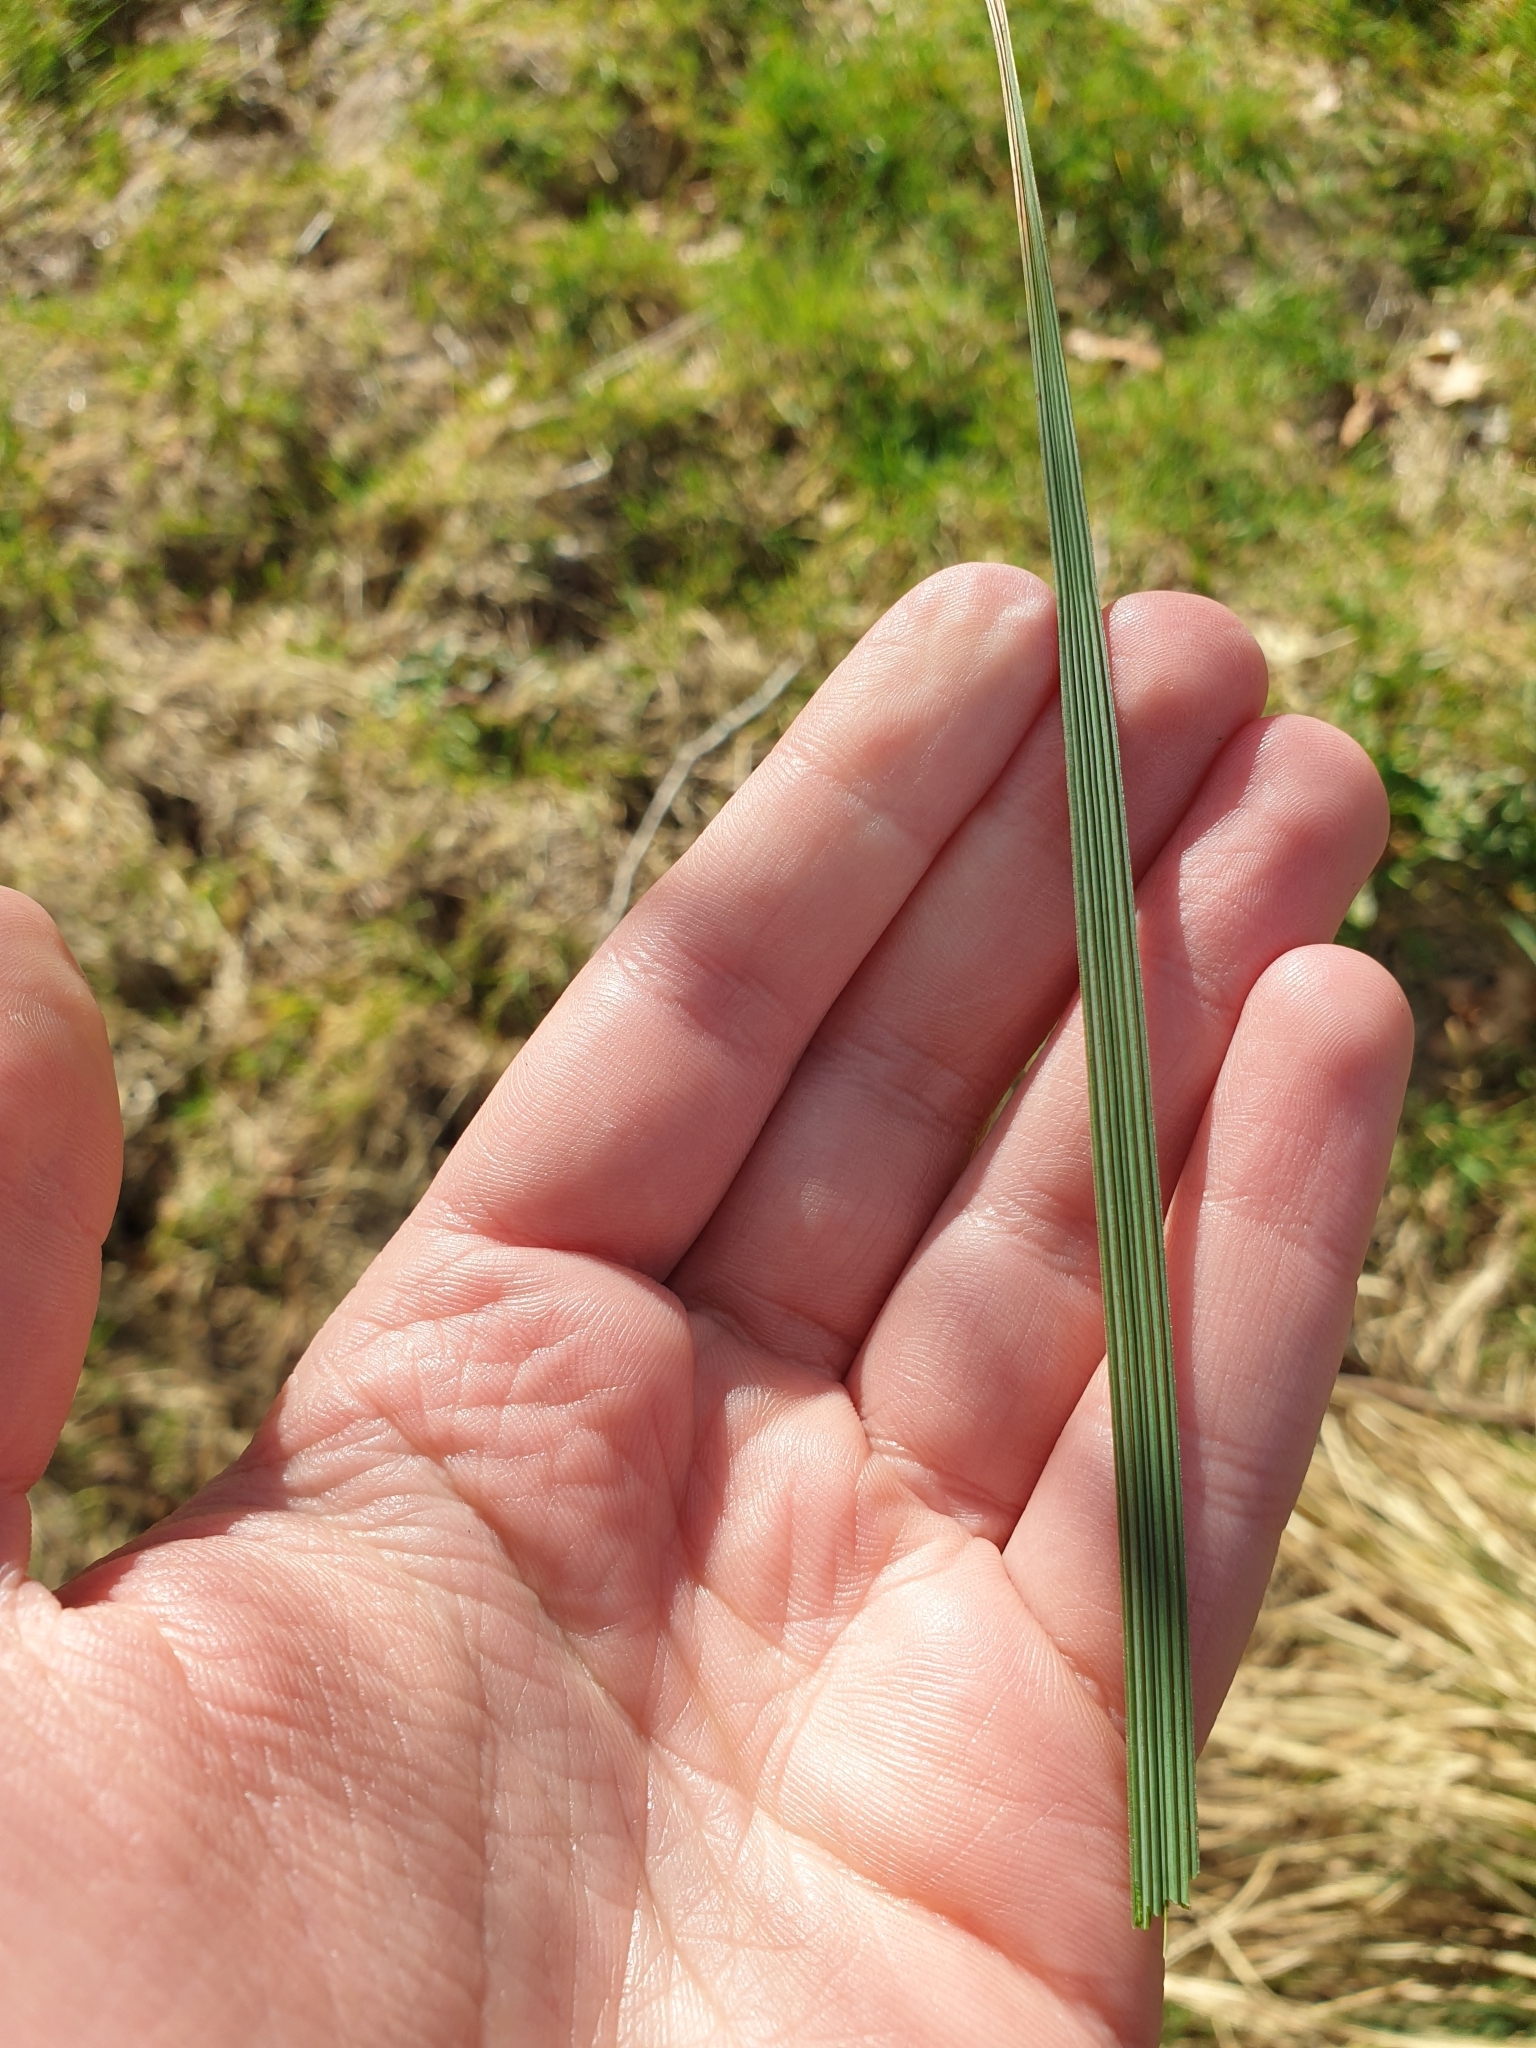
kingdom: Plantae
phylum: Tracheophyta
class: Liliopsida
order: Poales
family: Poaceae
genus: Deschampsia
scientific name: Deschampsia cespitosa
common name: Tufted hair-grass
